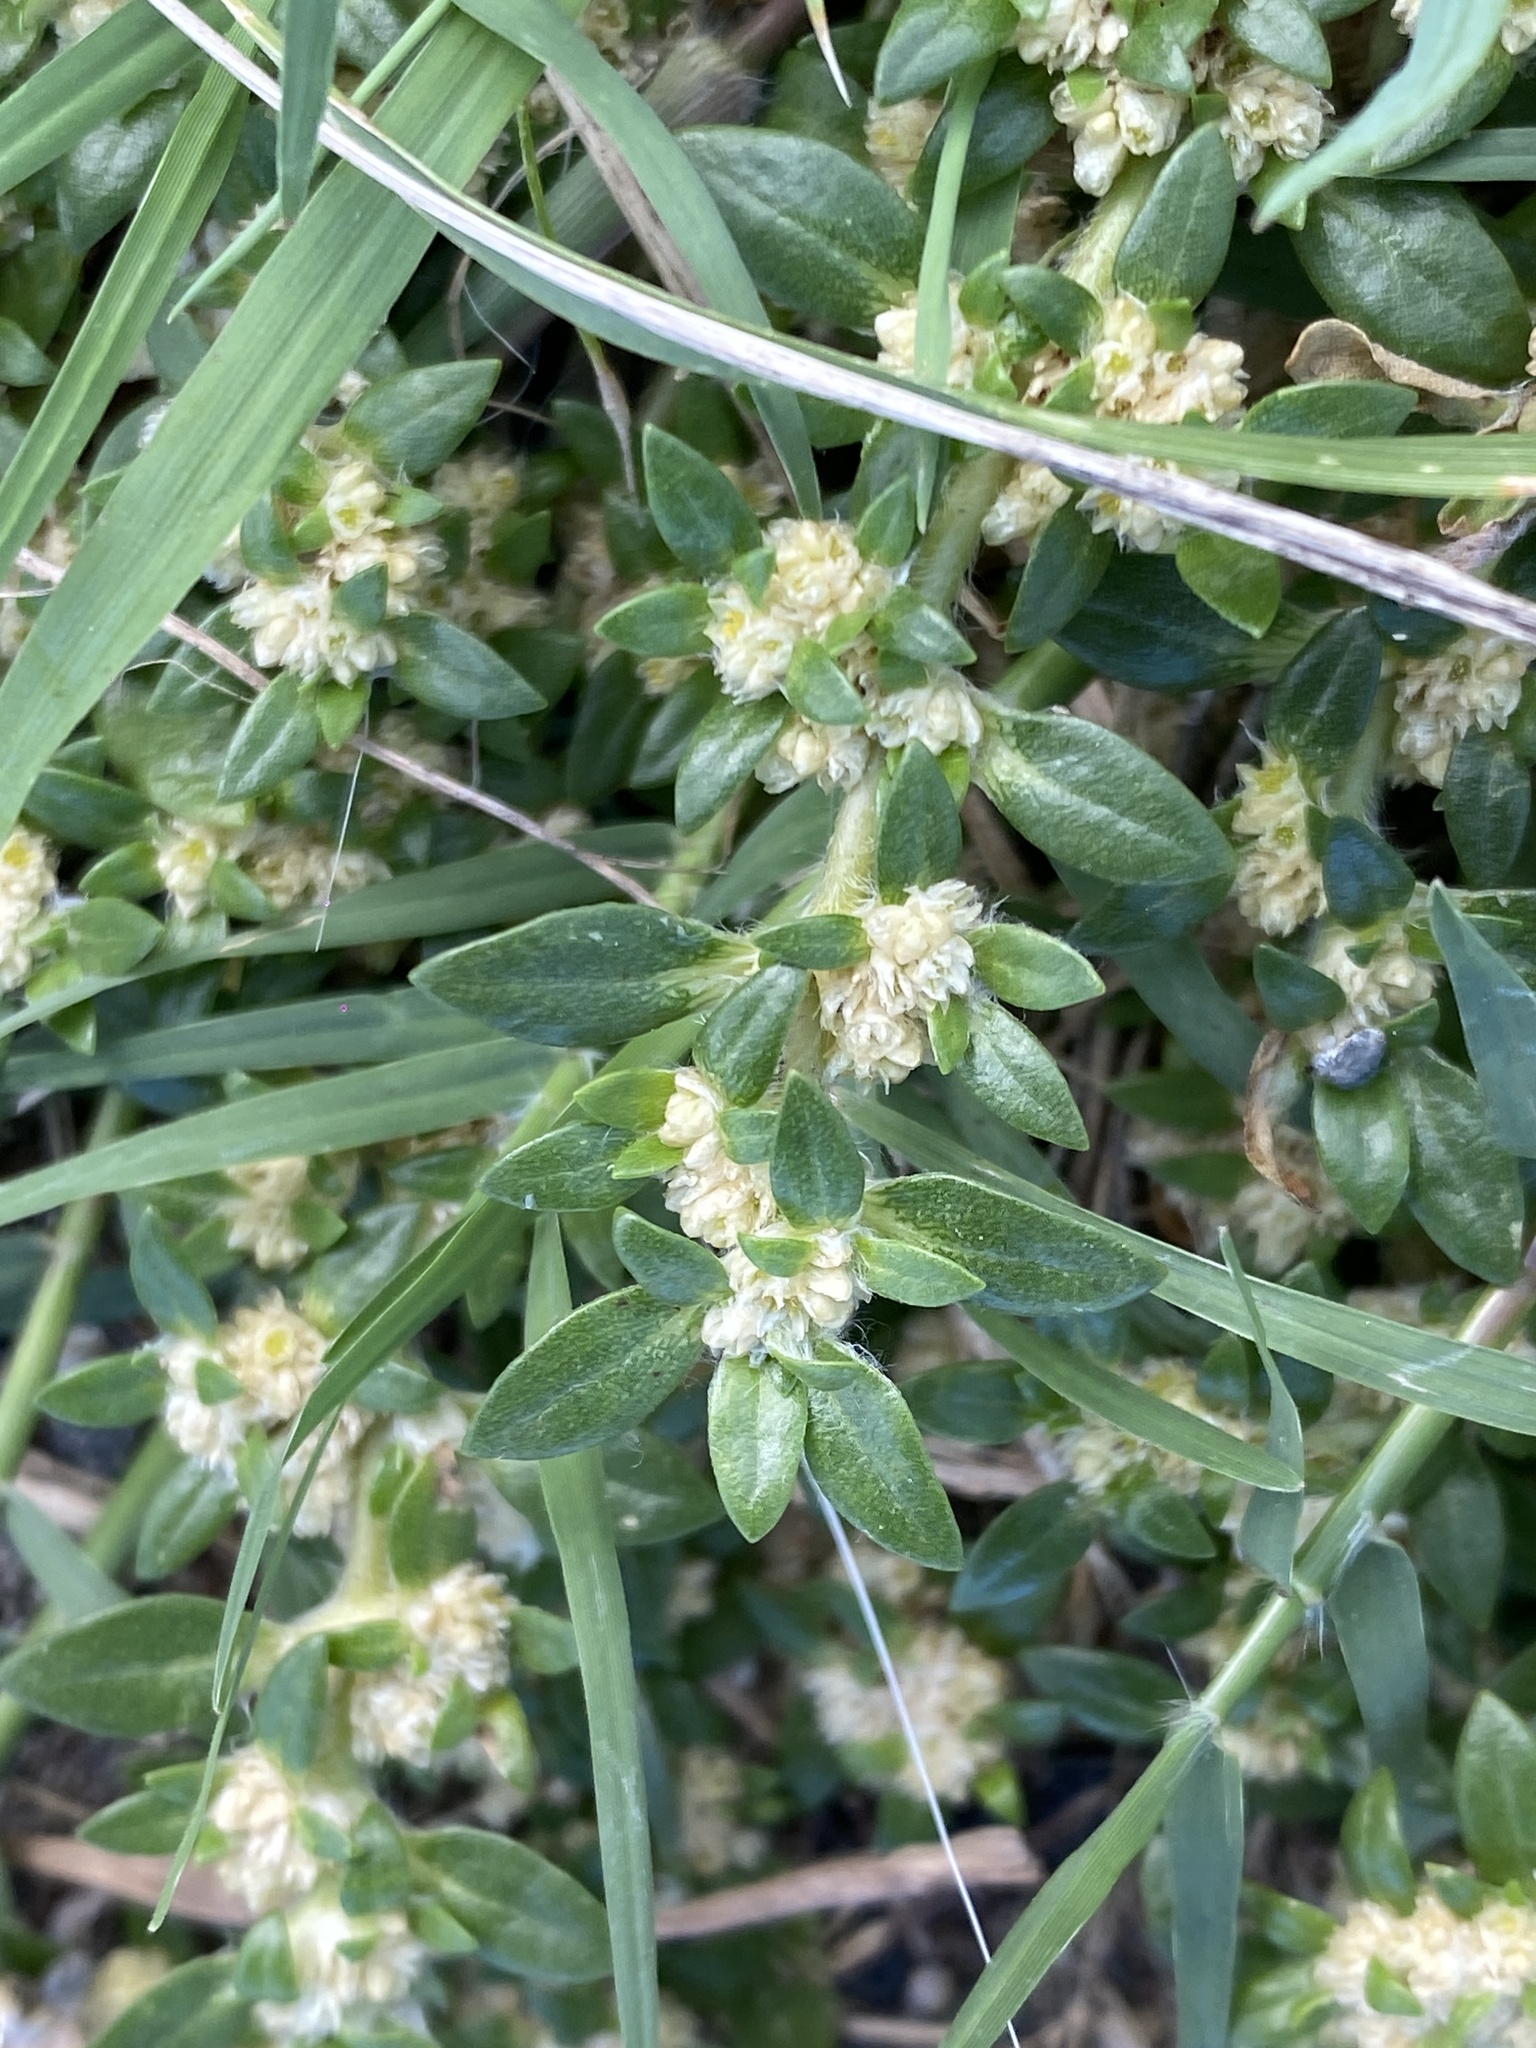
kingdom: Plantae
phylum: Tracheophyta
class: Magnoliopsida
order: Caryophyllales
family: Amaranthaceae
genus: Guilleminea
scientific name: Guilleminea densa
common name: Small matweed
